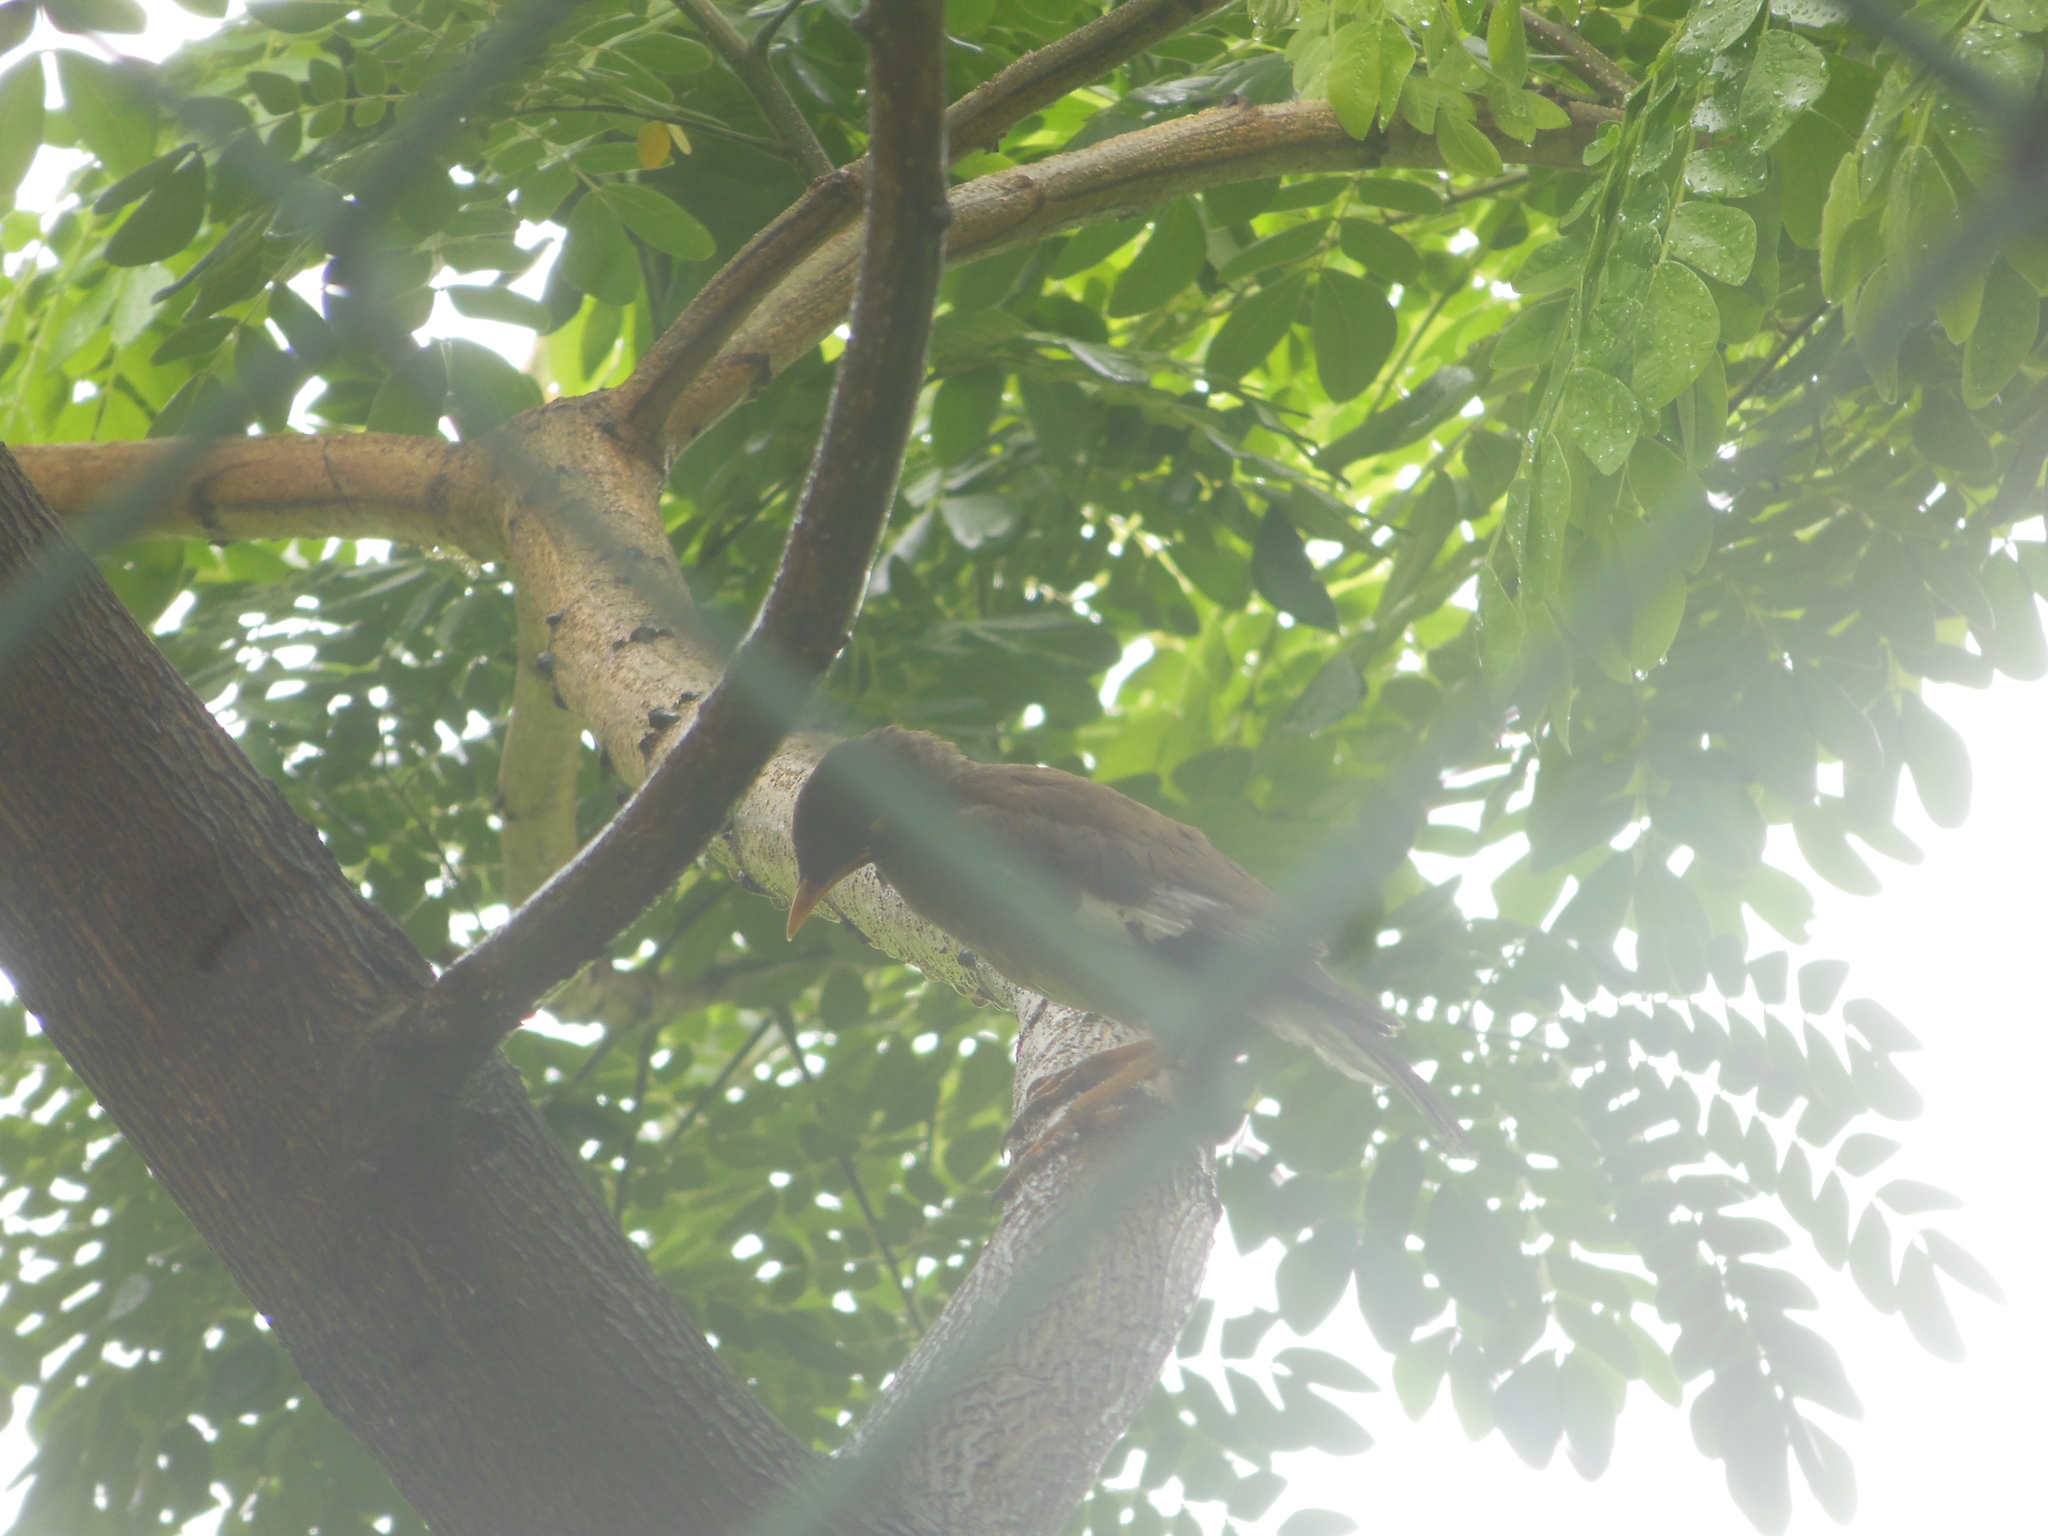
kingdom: Animalia
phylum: Chordata
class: Aves
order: Passeriformes
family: Sturnidae
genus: Acridotheres
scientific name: Acridotheres tristis
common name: Common myna
